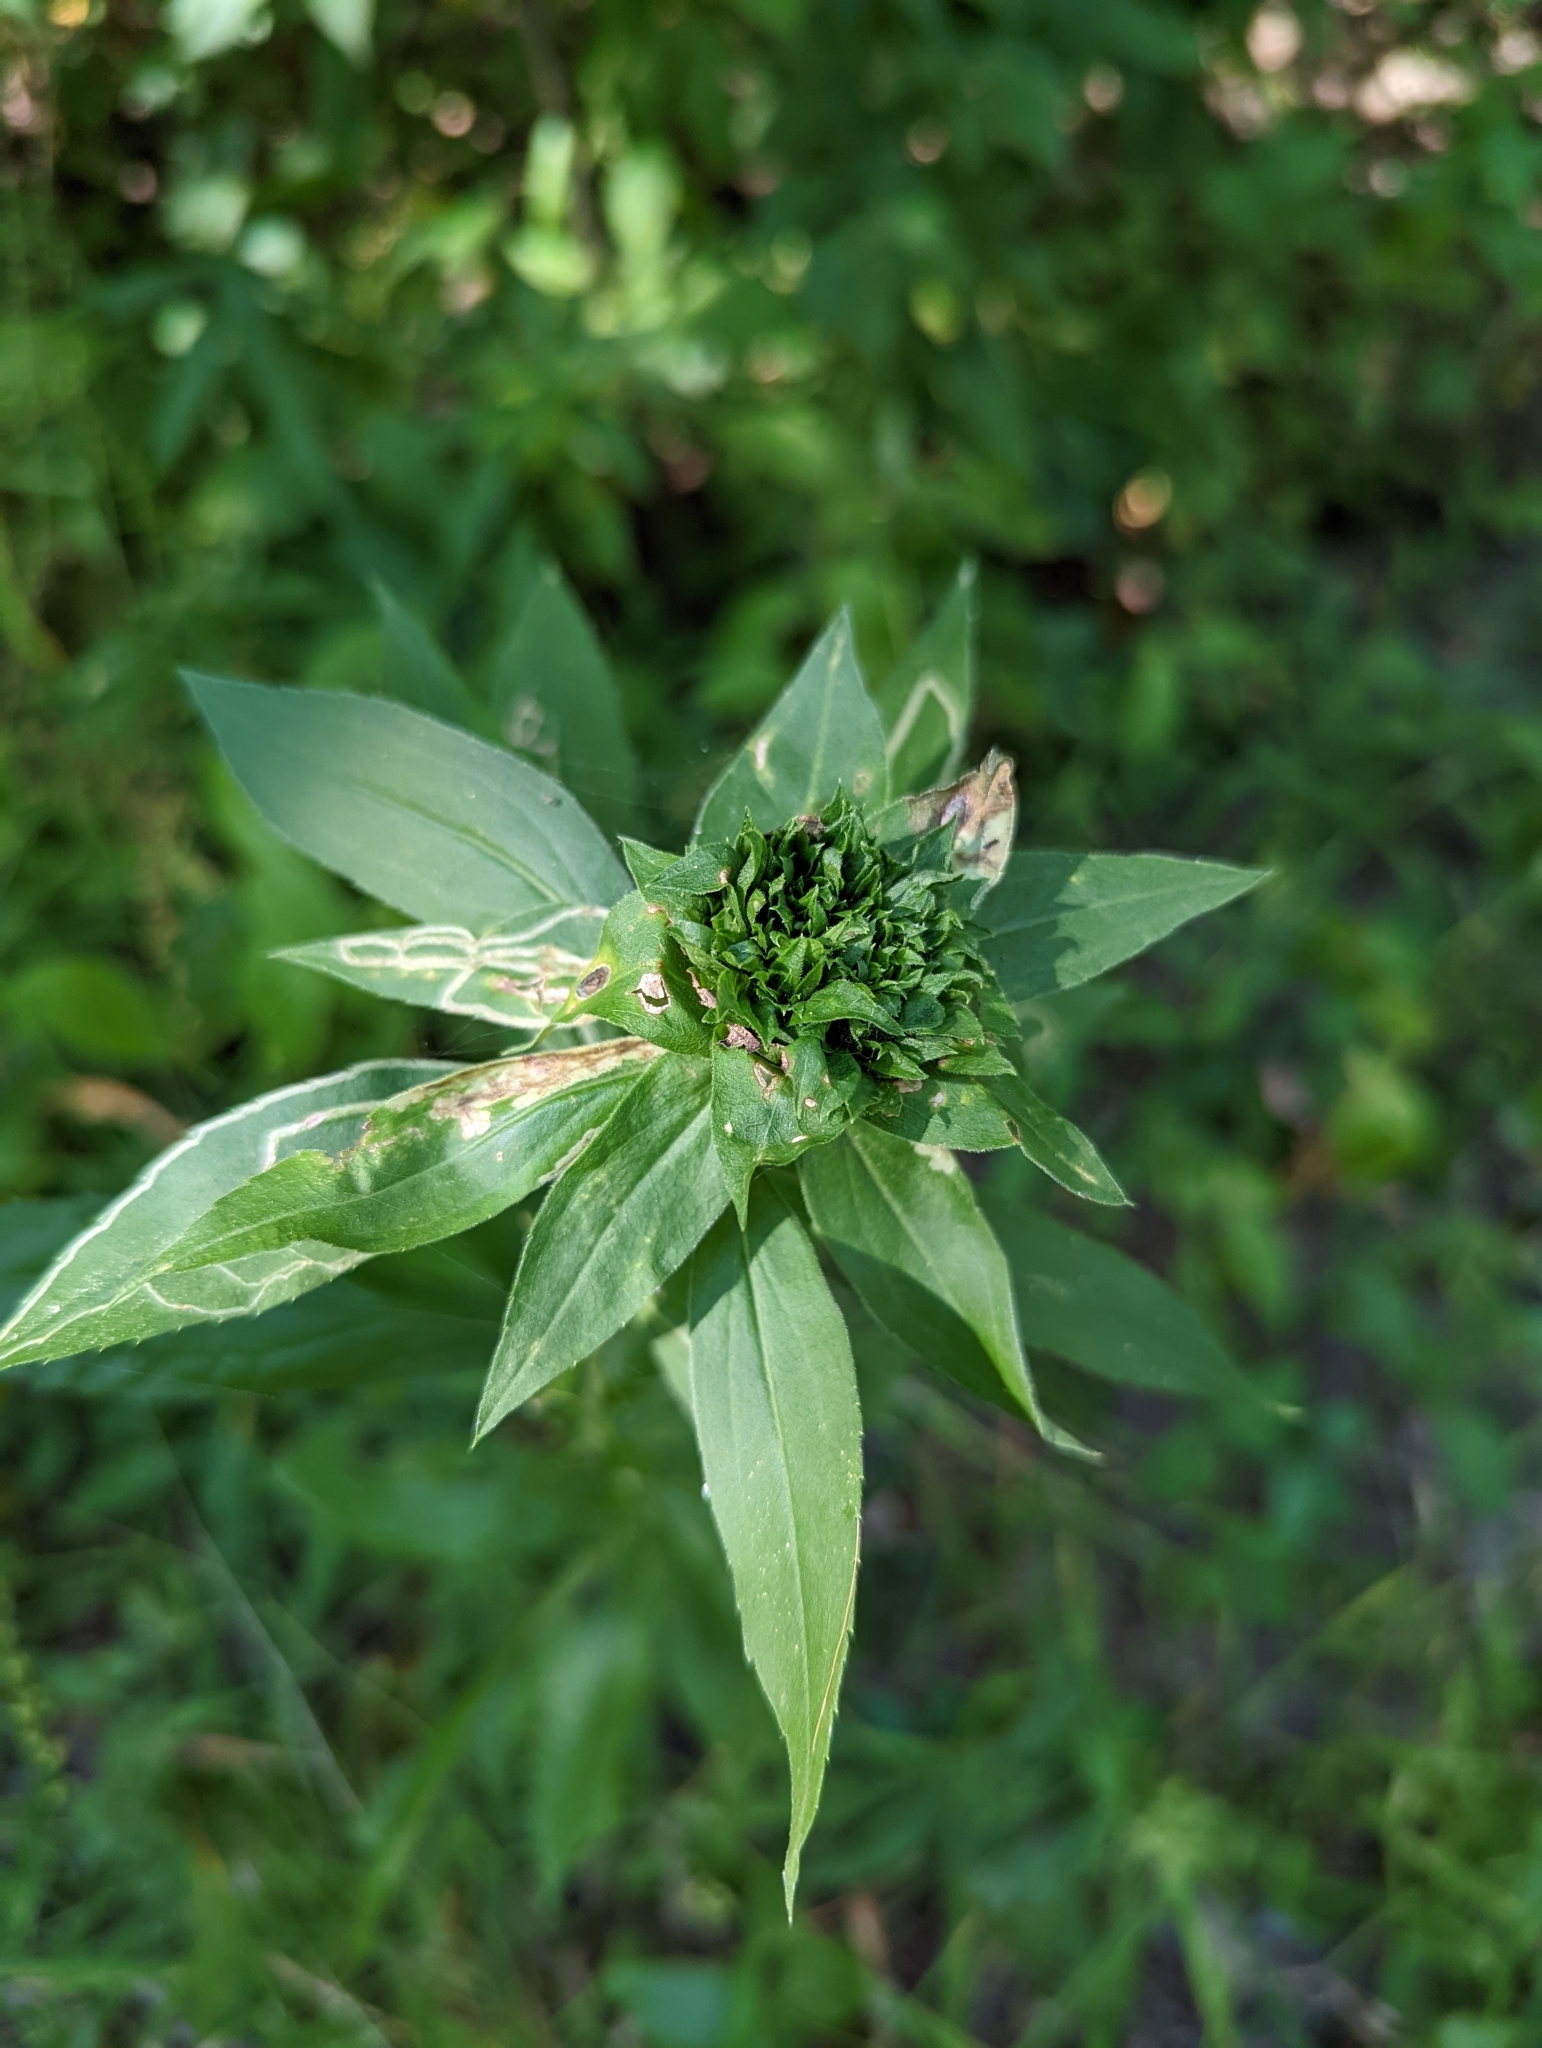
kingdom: Animalia
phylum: Arthropoda
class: Insecta
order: Diptera
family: Cecidomyiidae
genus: Rhopalomyia
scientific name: Rhopalomyia capitata
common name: Giant goldenrod bunch gall midge
